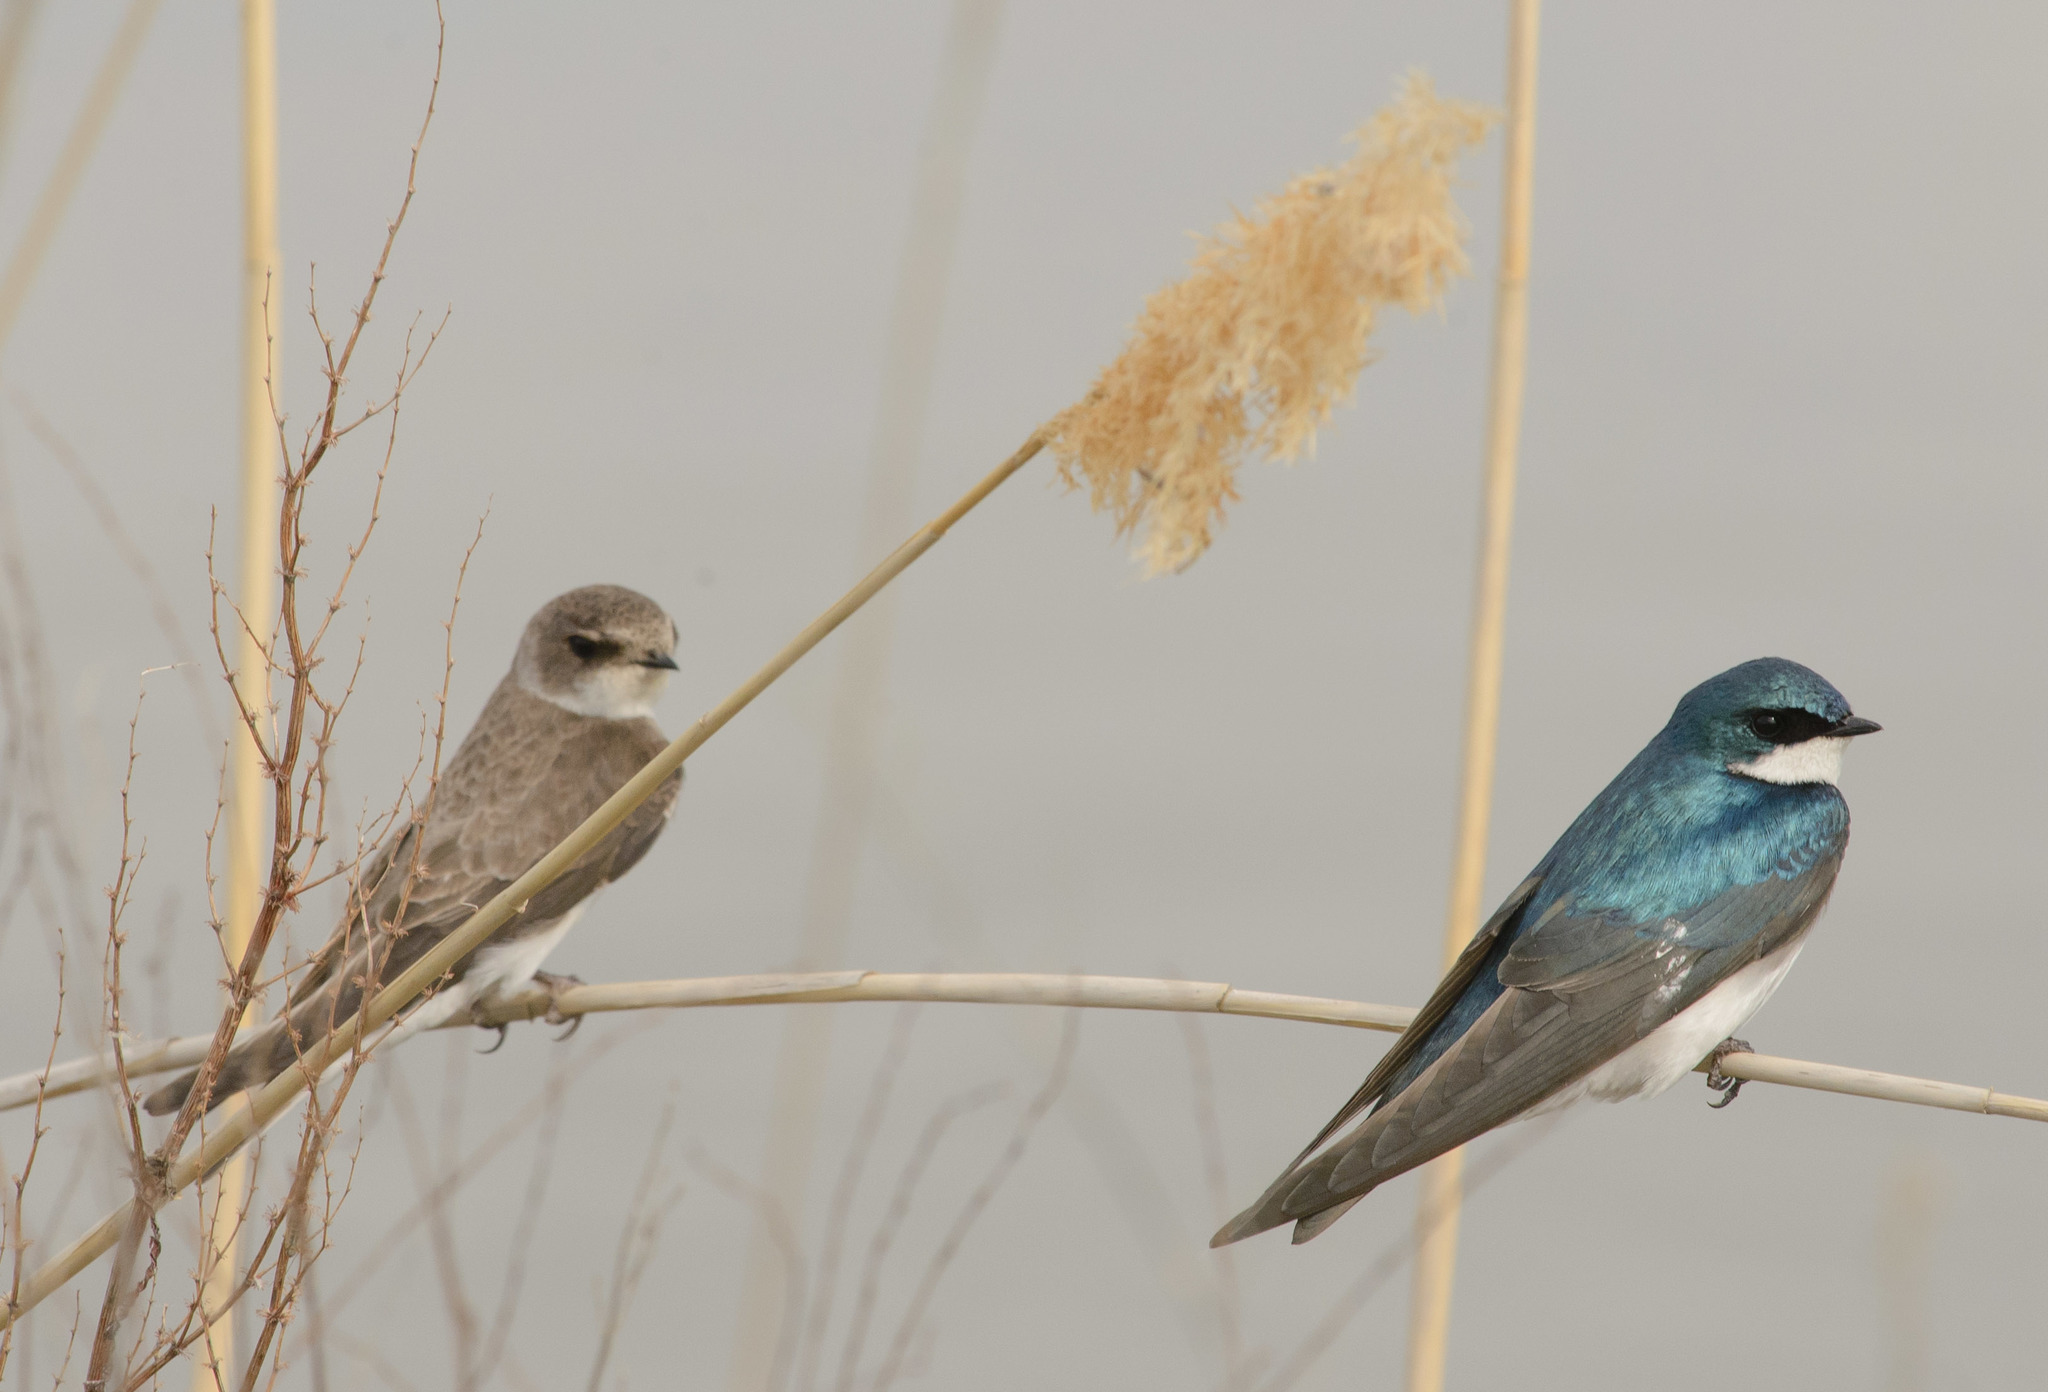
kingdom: Animalia
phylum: Chordata
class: Aves
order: Passeriformes
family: Hirundinidae
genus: Tachycineta
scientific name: Tachycineta bicolor
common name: Tree swallow
